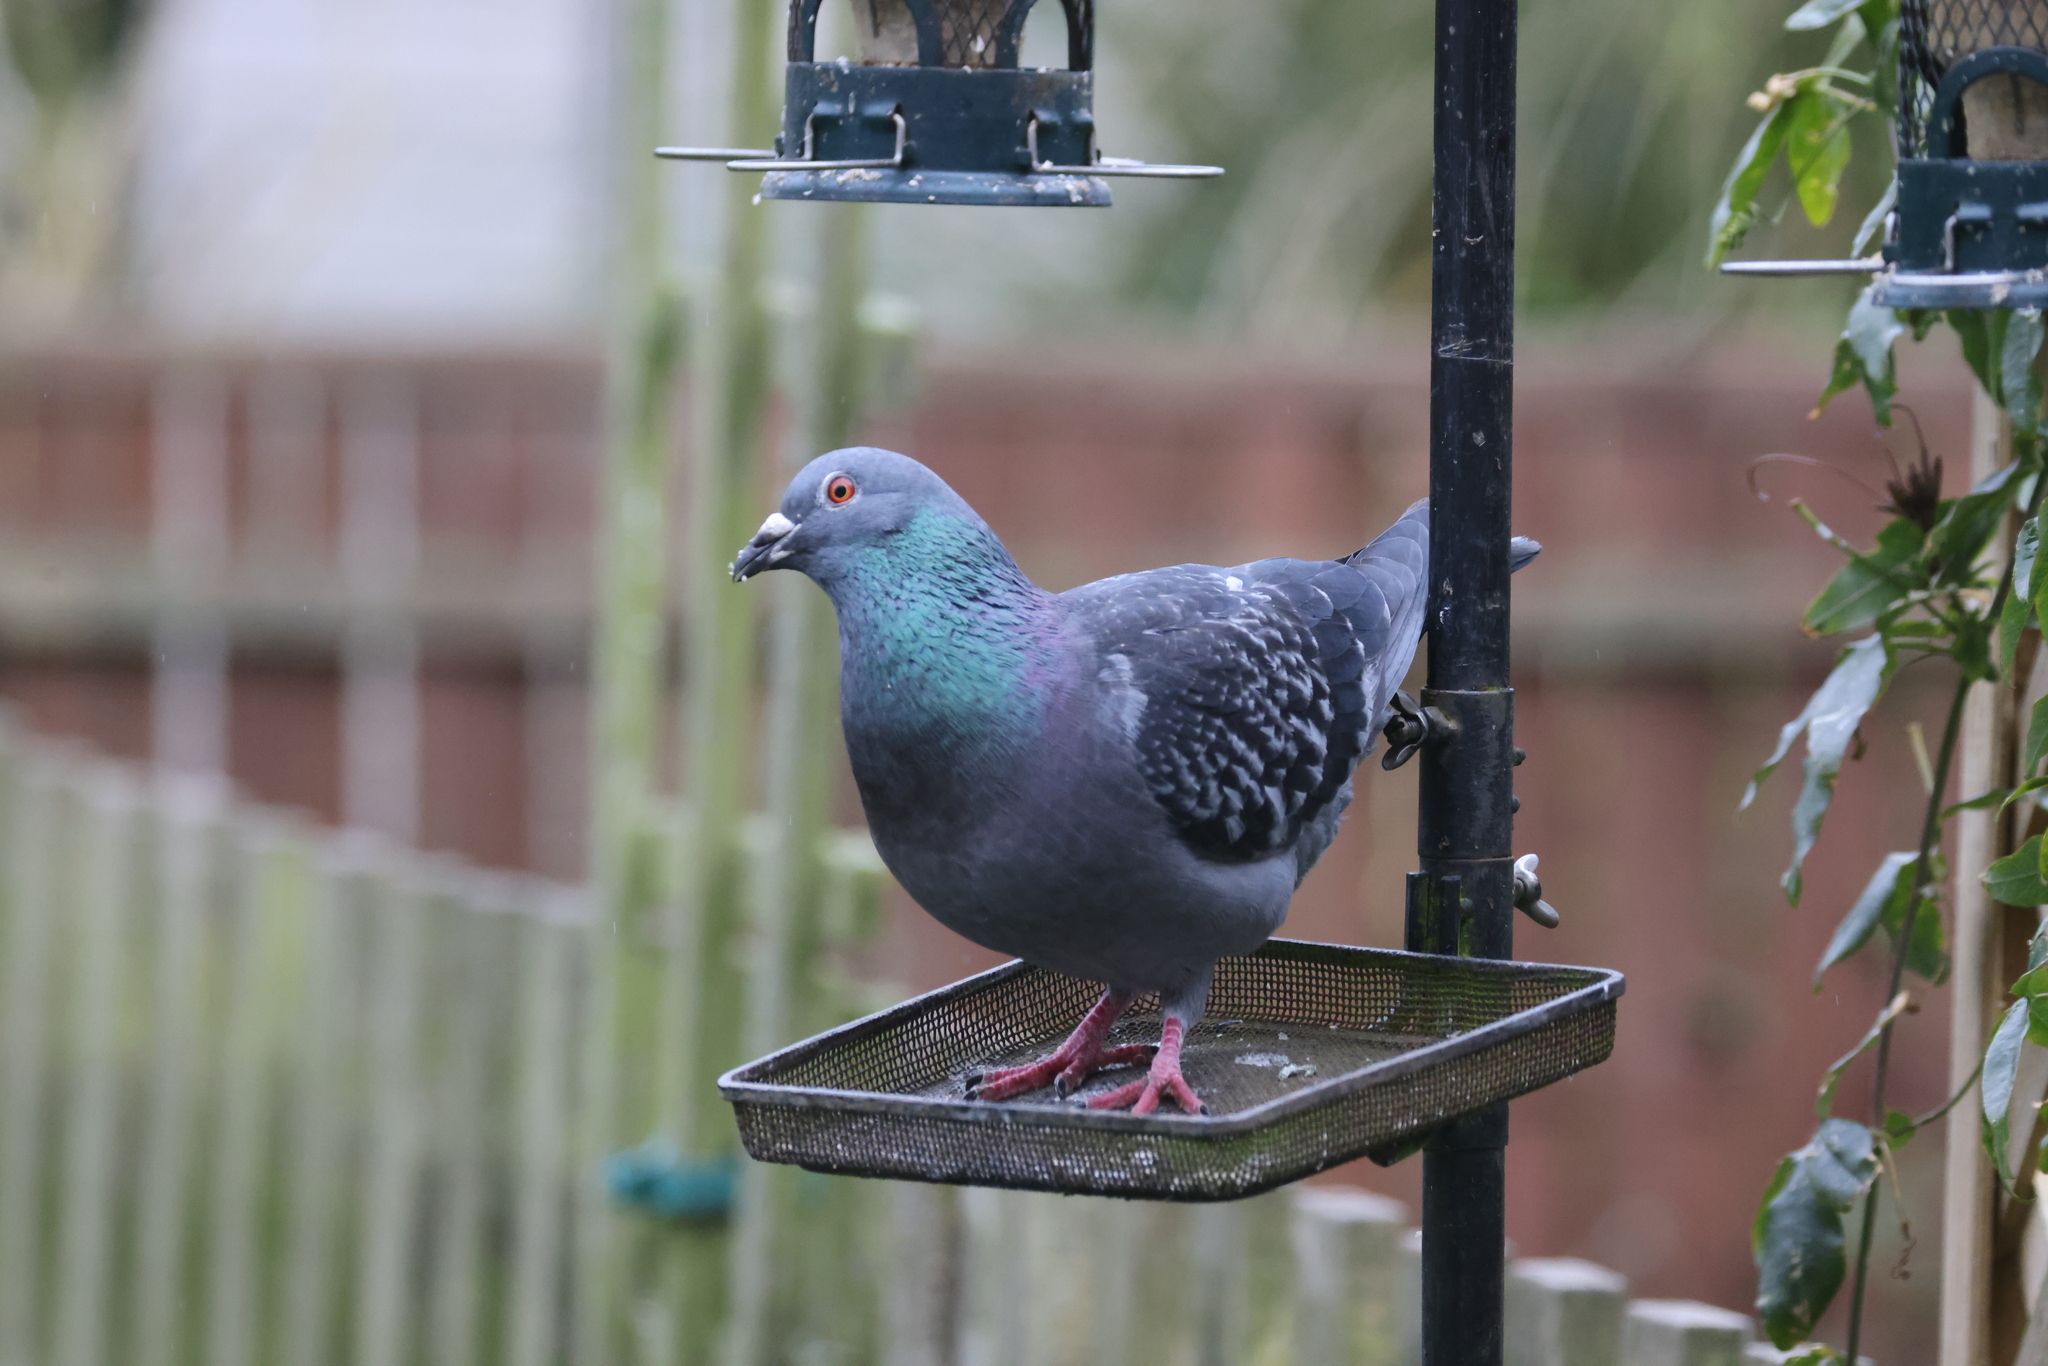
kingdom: Animalia
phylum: Chordata
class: Aves
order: Columbiformes
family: Columbidae
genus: Columba
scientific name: Columba livia
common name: Rock pigeon
